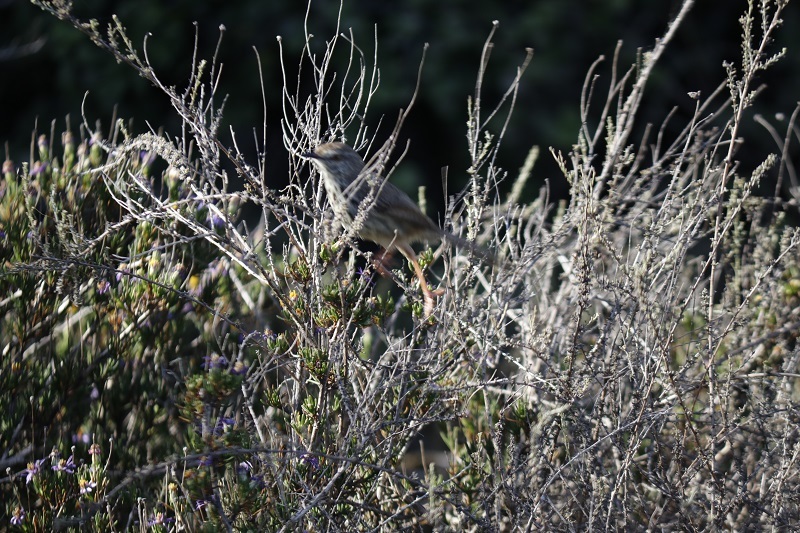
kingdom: Animalia
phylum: Chordata
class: Aves
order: Passeriformes
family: Cisticolidae
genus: Prinia
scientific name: Prinia maculosa
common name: Karoo prinia
